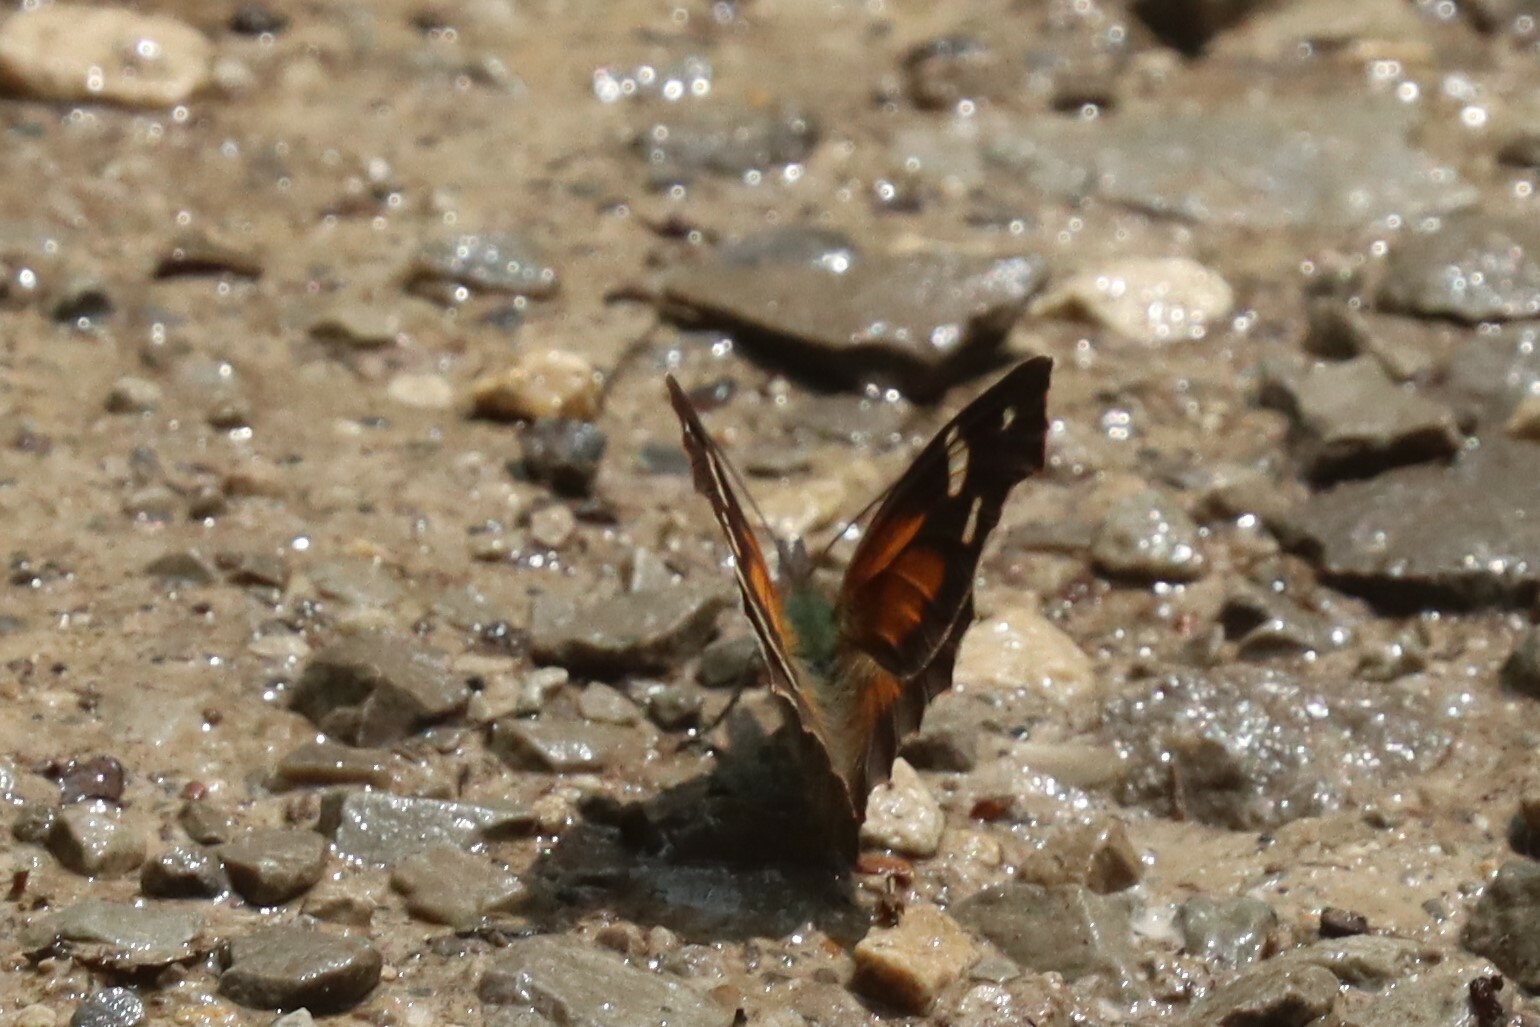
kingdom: Animalia
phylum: Arthropoda
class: Insecta
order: Lepidoptera
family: Nymphalidae
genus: Libytheana
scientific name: Libytheana carinenta
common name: American snout
